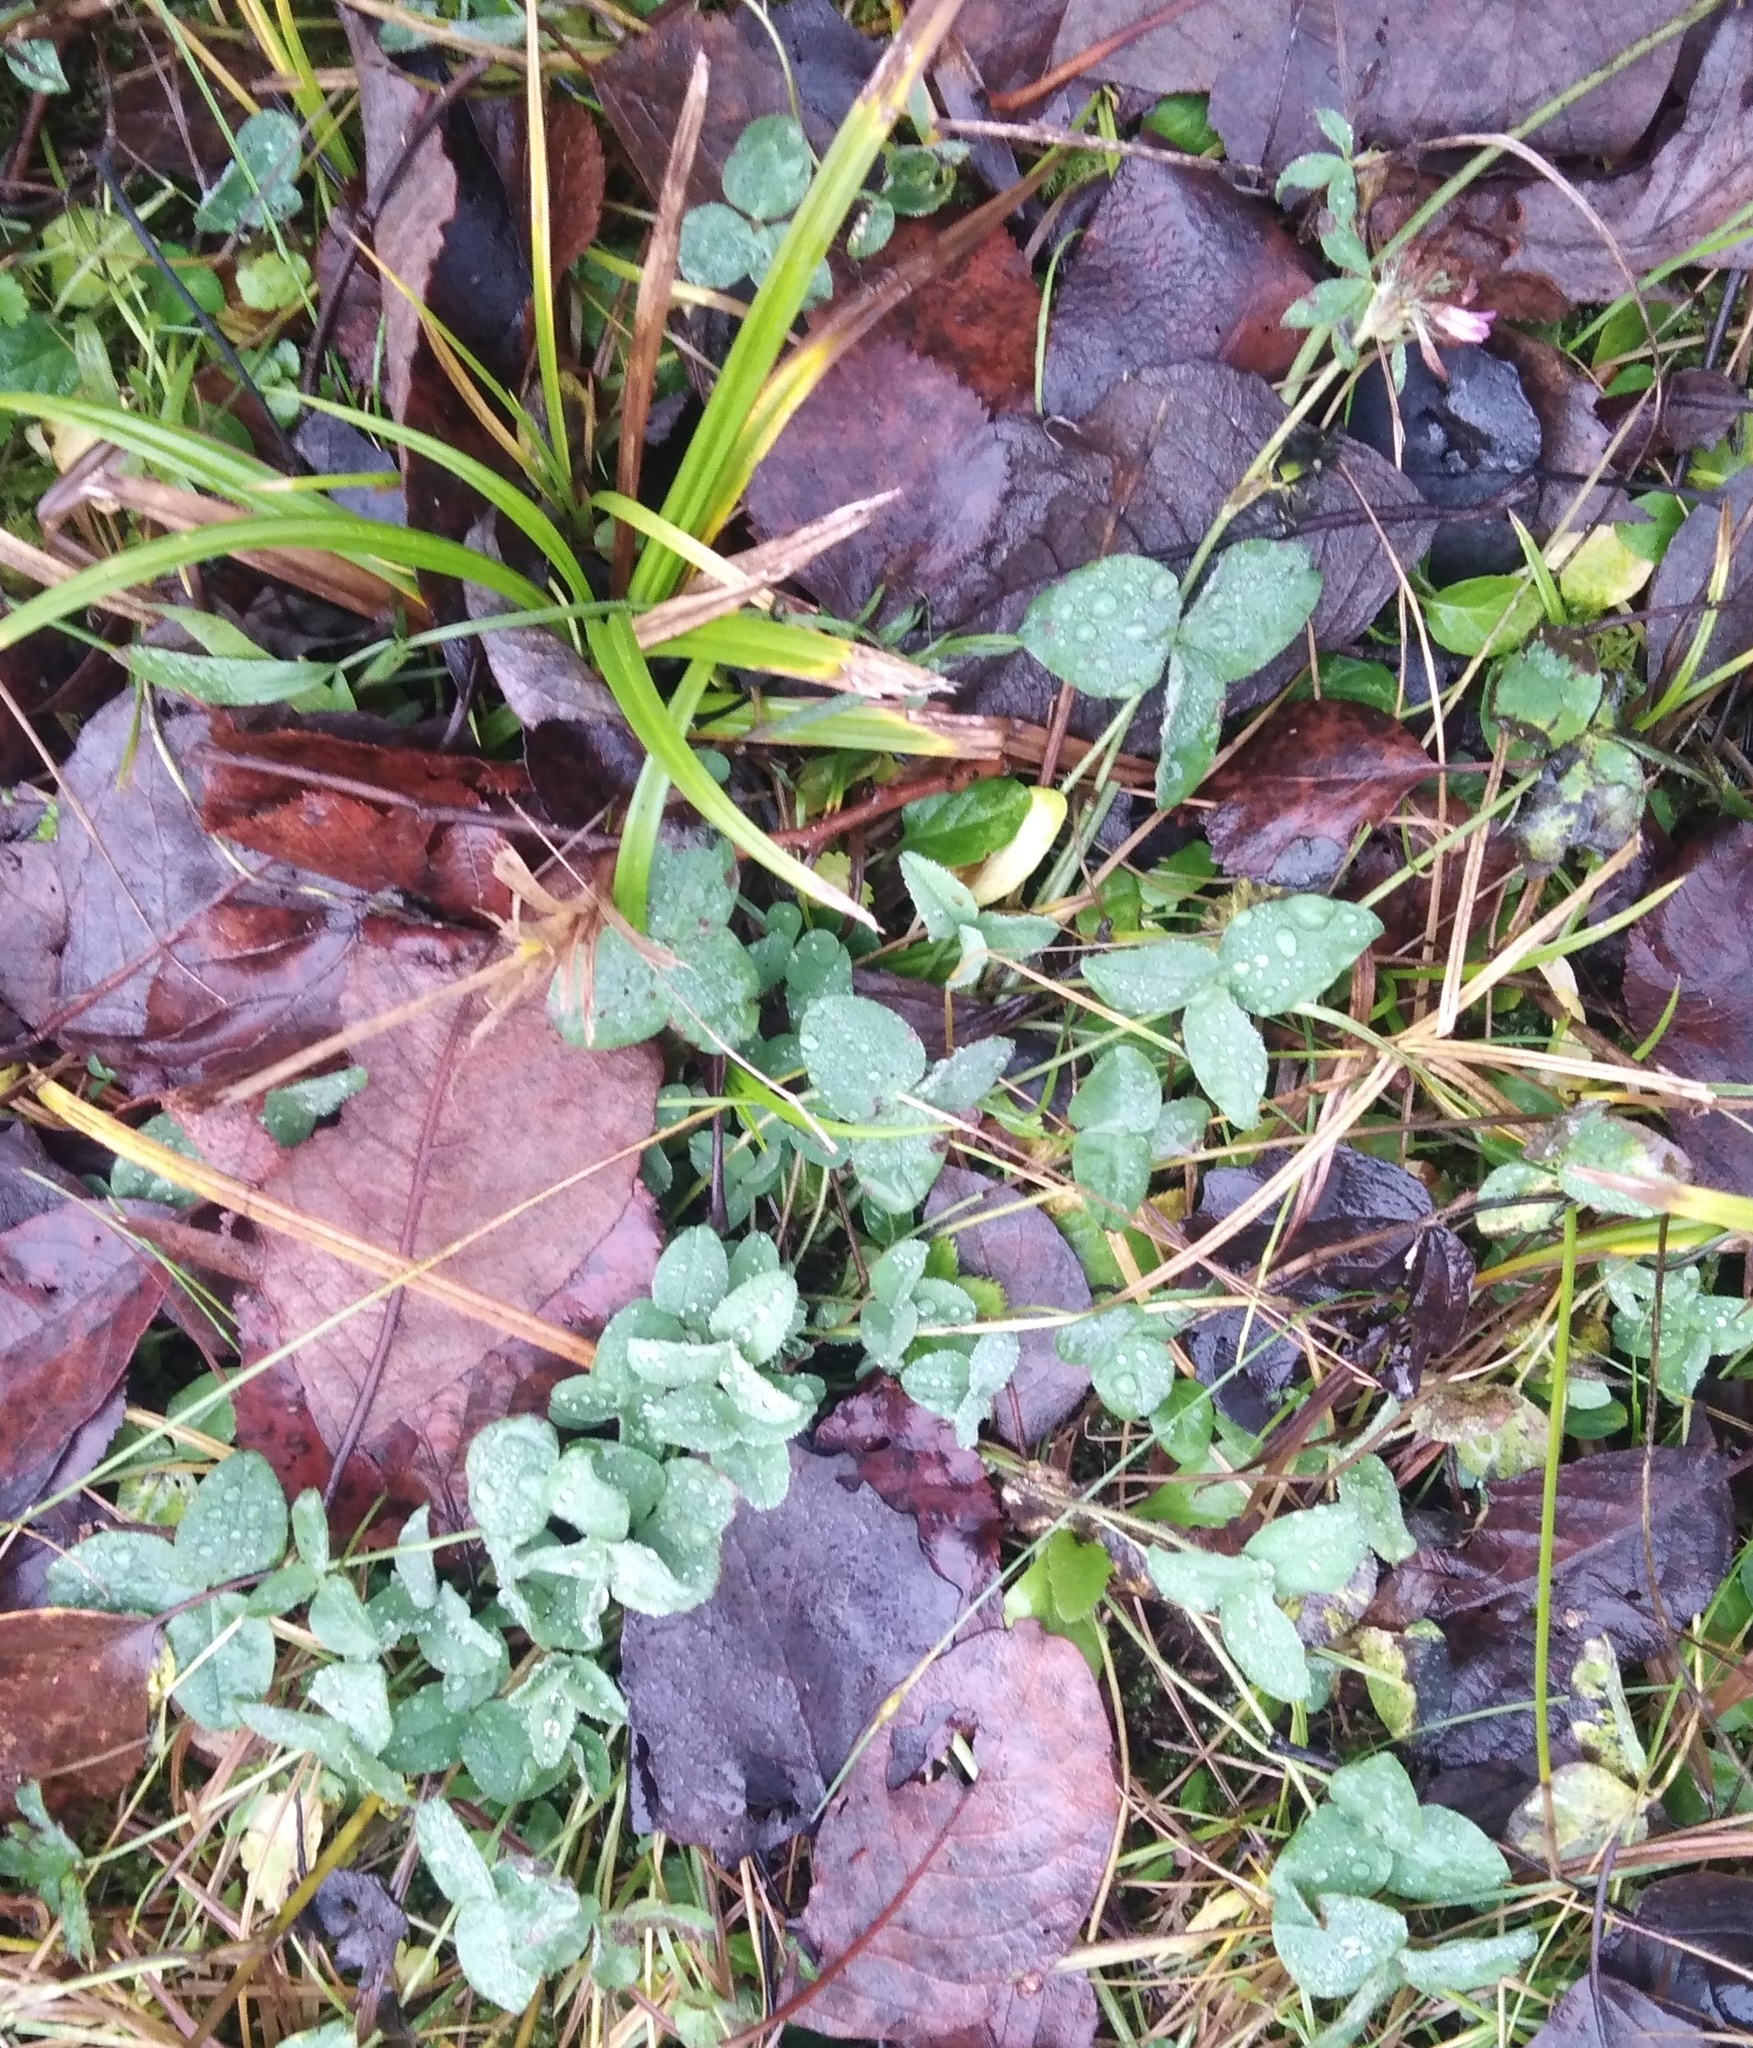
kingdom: Plantae
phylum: Tracheophyta
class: Magnoliopsida
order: Fabales
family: Fabaceae
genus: Trifolium
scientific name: Trifolium pratense
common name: Red clover
